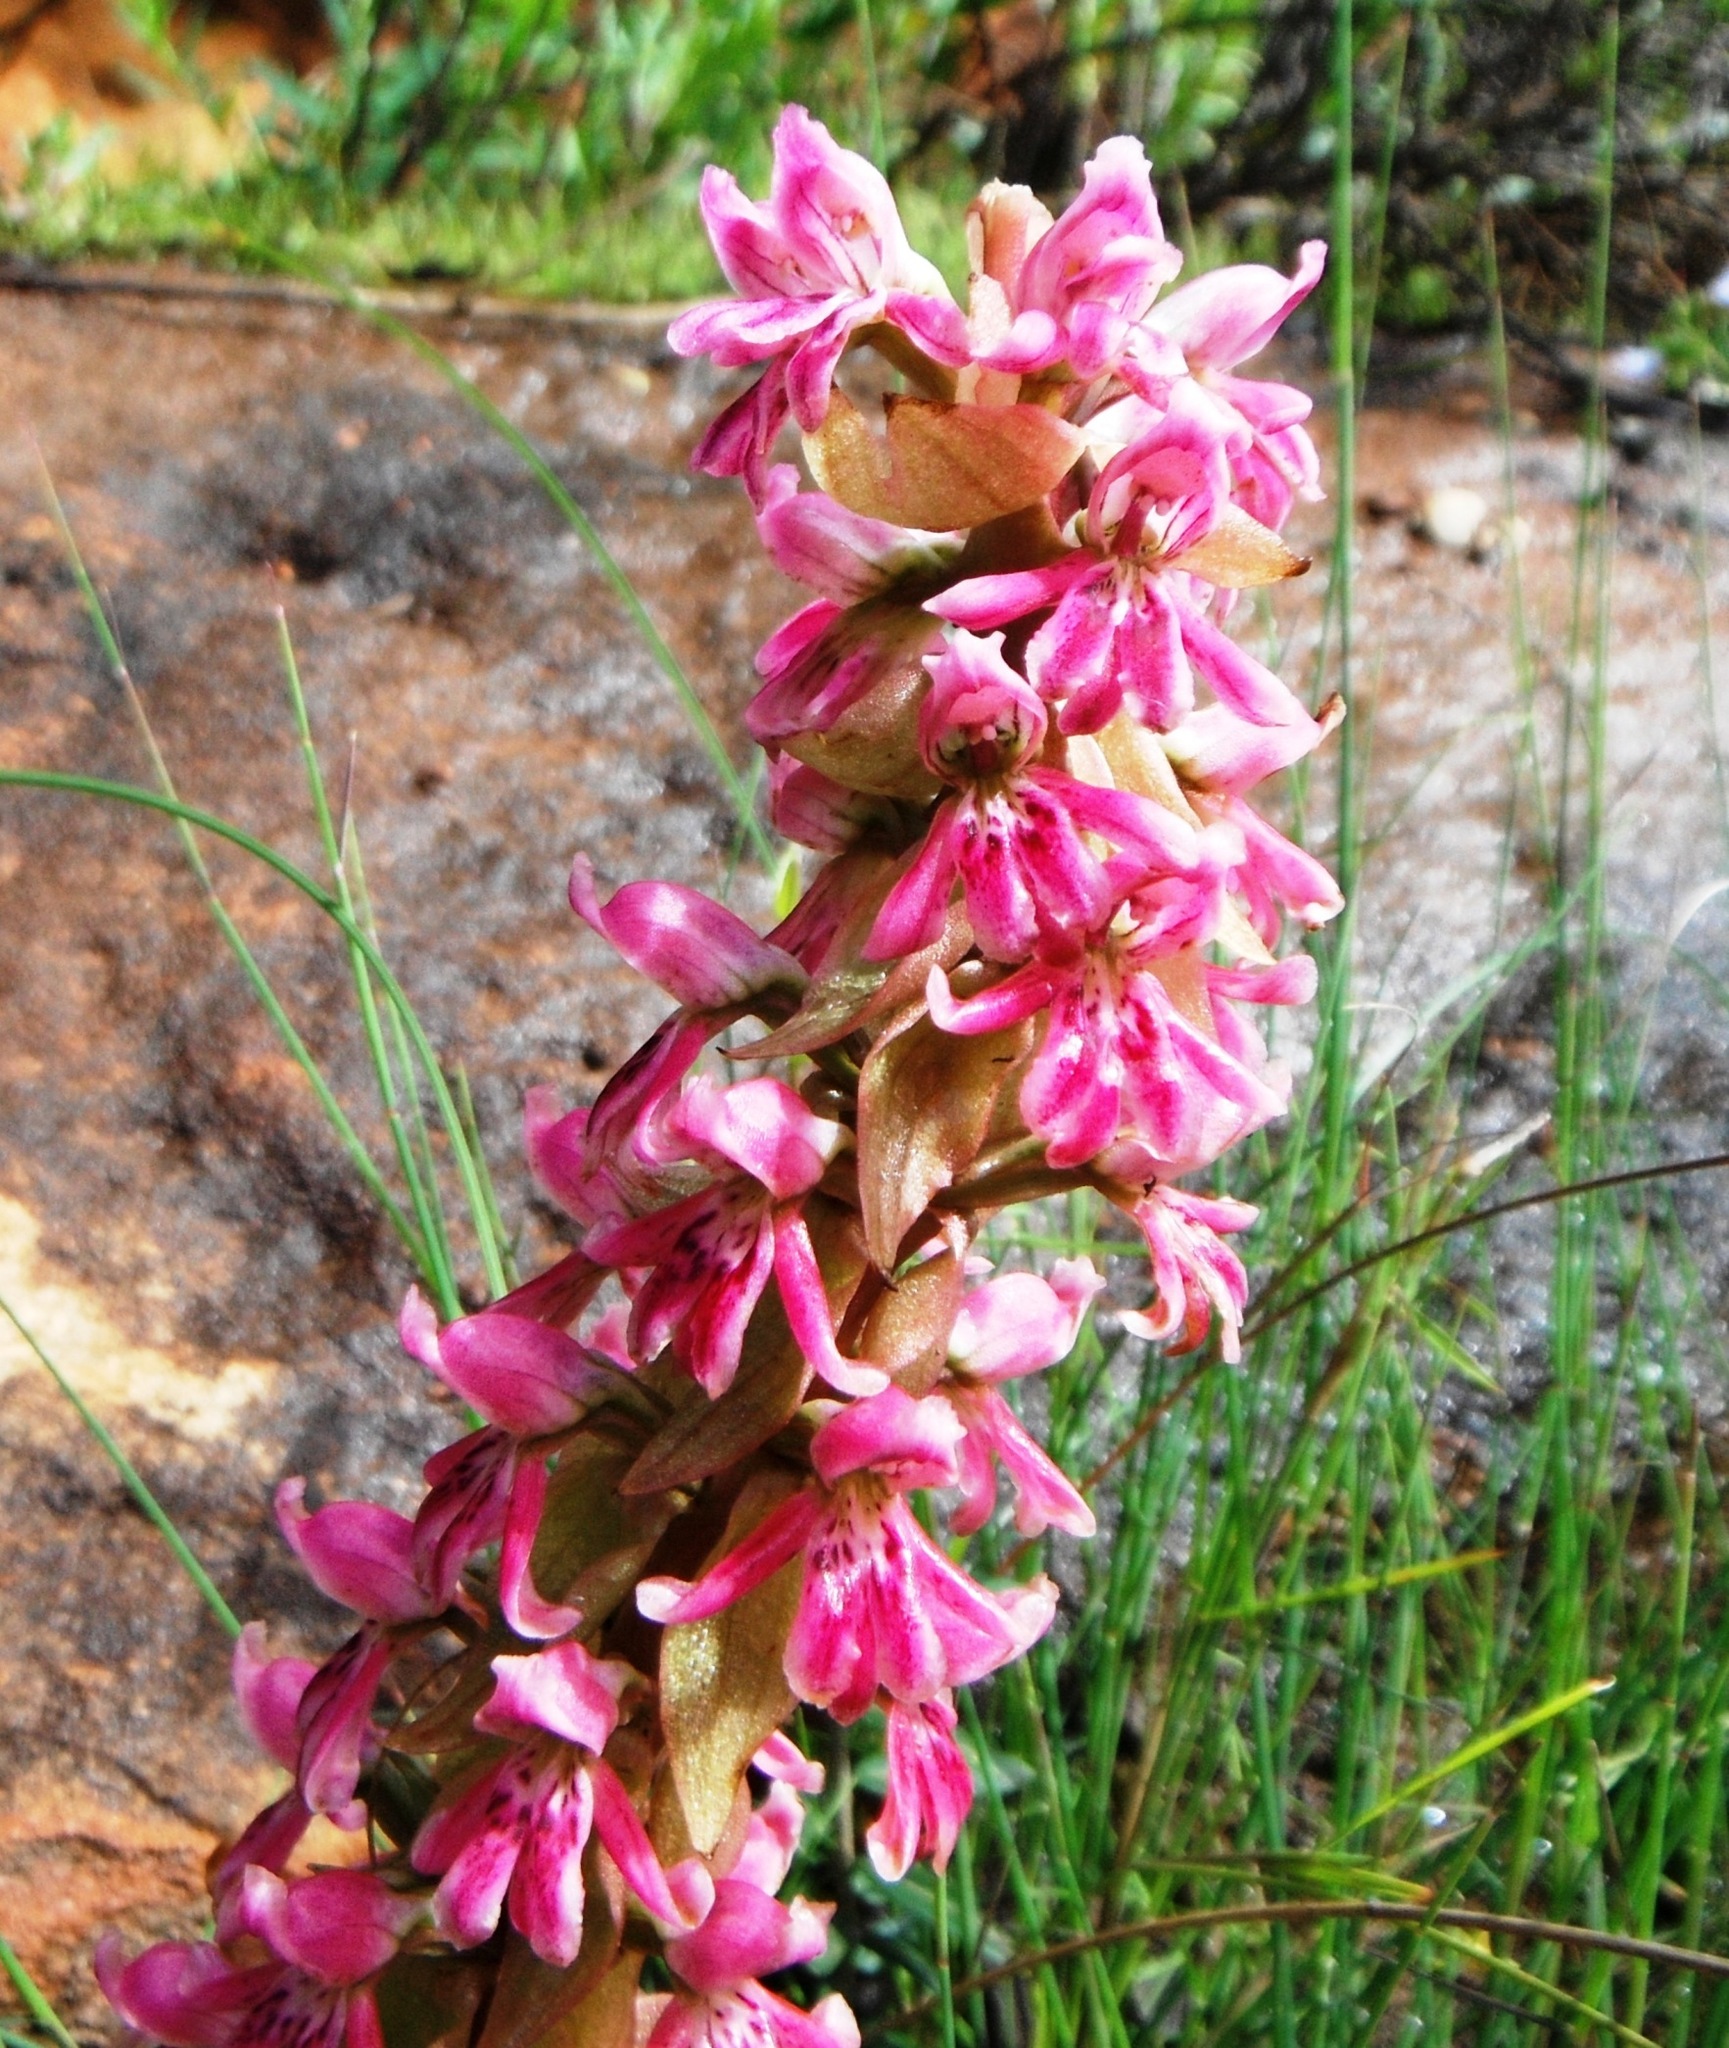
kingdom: Plantae
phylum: Tracheophyta
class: Liliopsida
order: Asparagales
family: Orchidaceae
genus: Satyrium
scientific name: Satyrium erectum
